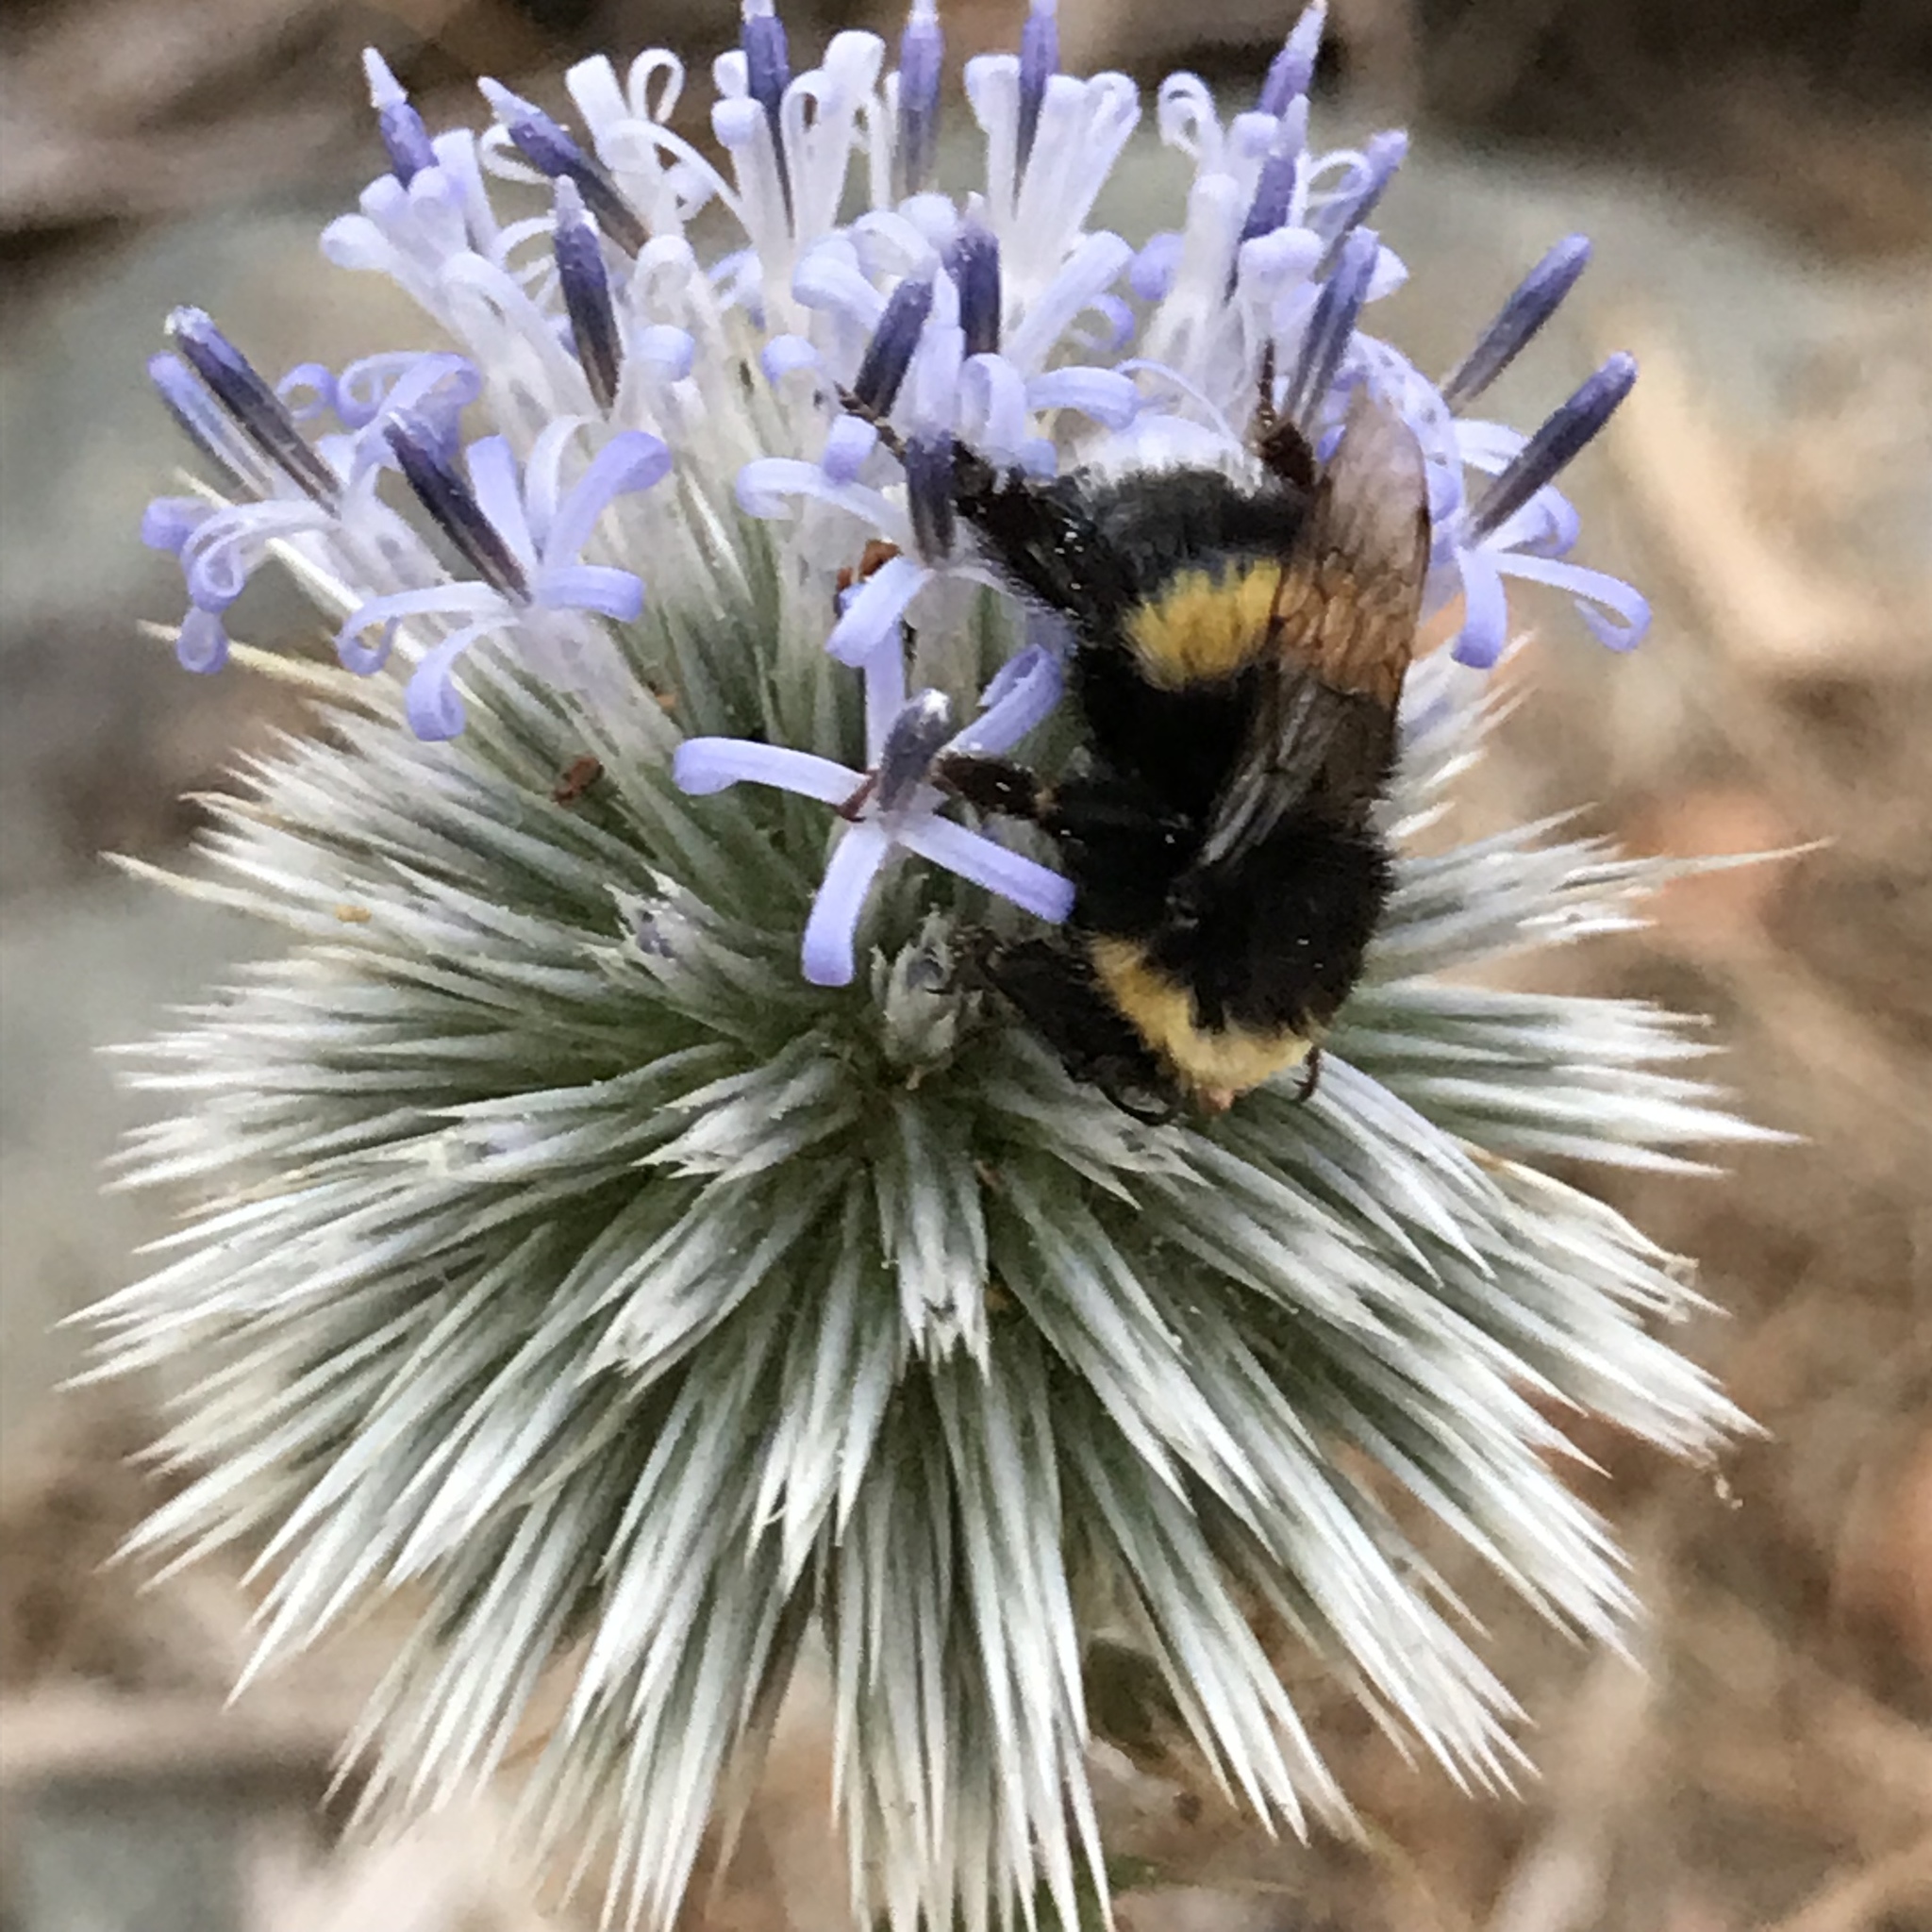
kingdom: Animalia
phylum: Arthropoda
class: Insecta
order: Hymenoptera
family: Apidae
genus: Bombus
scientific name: Bombus terrestris
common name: Buff-tailed bumblebee
